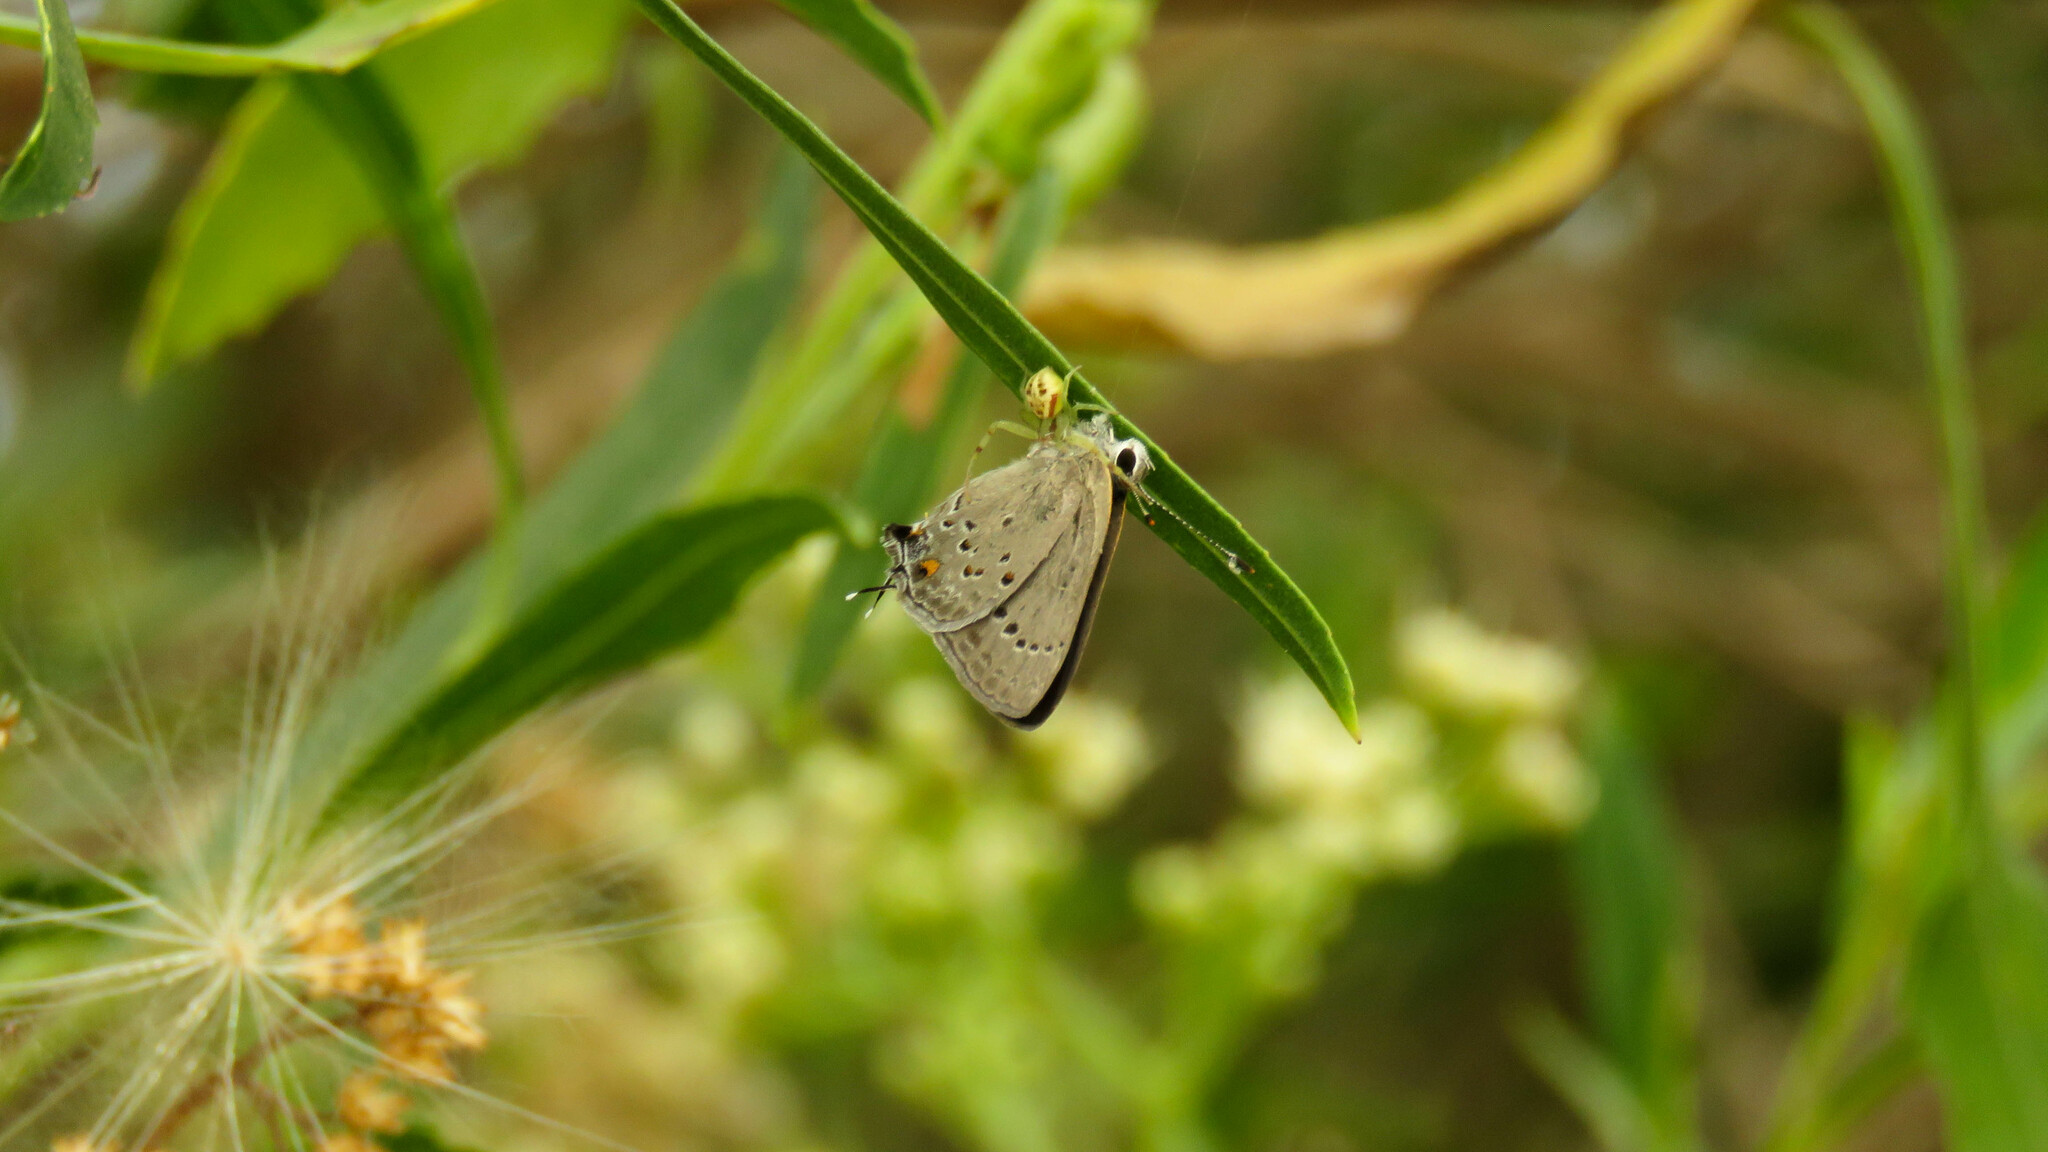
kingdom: Animalia
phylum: Arthropoda
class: Insecta
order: Lepidoptera
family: Lycaenidae
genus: Strymon
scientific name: Strymon eurytulus
